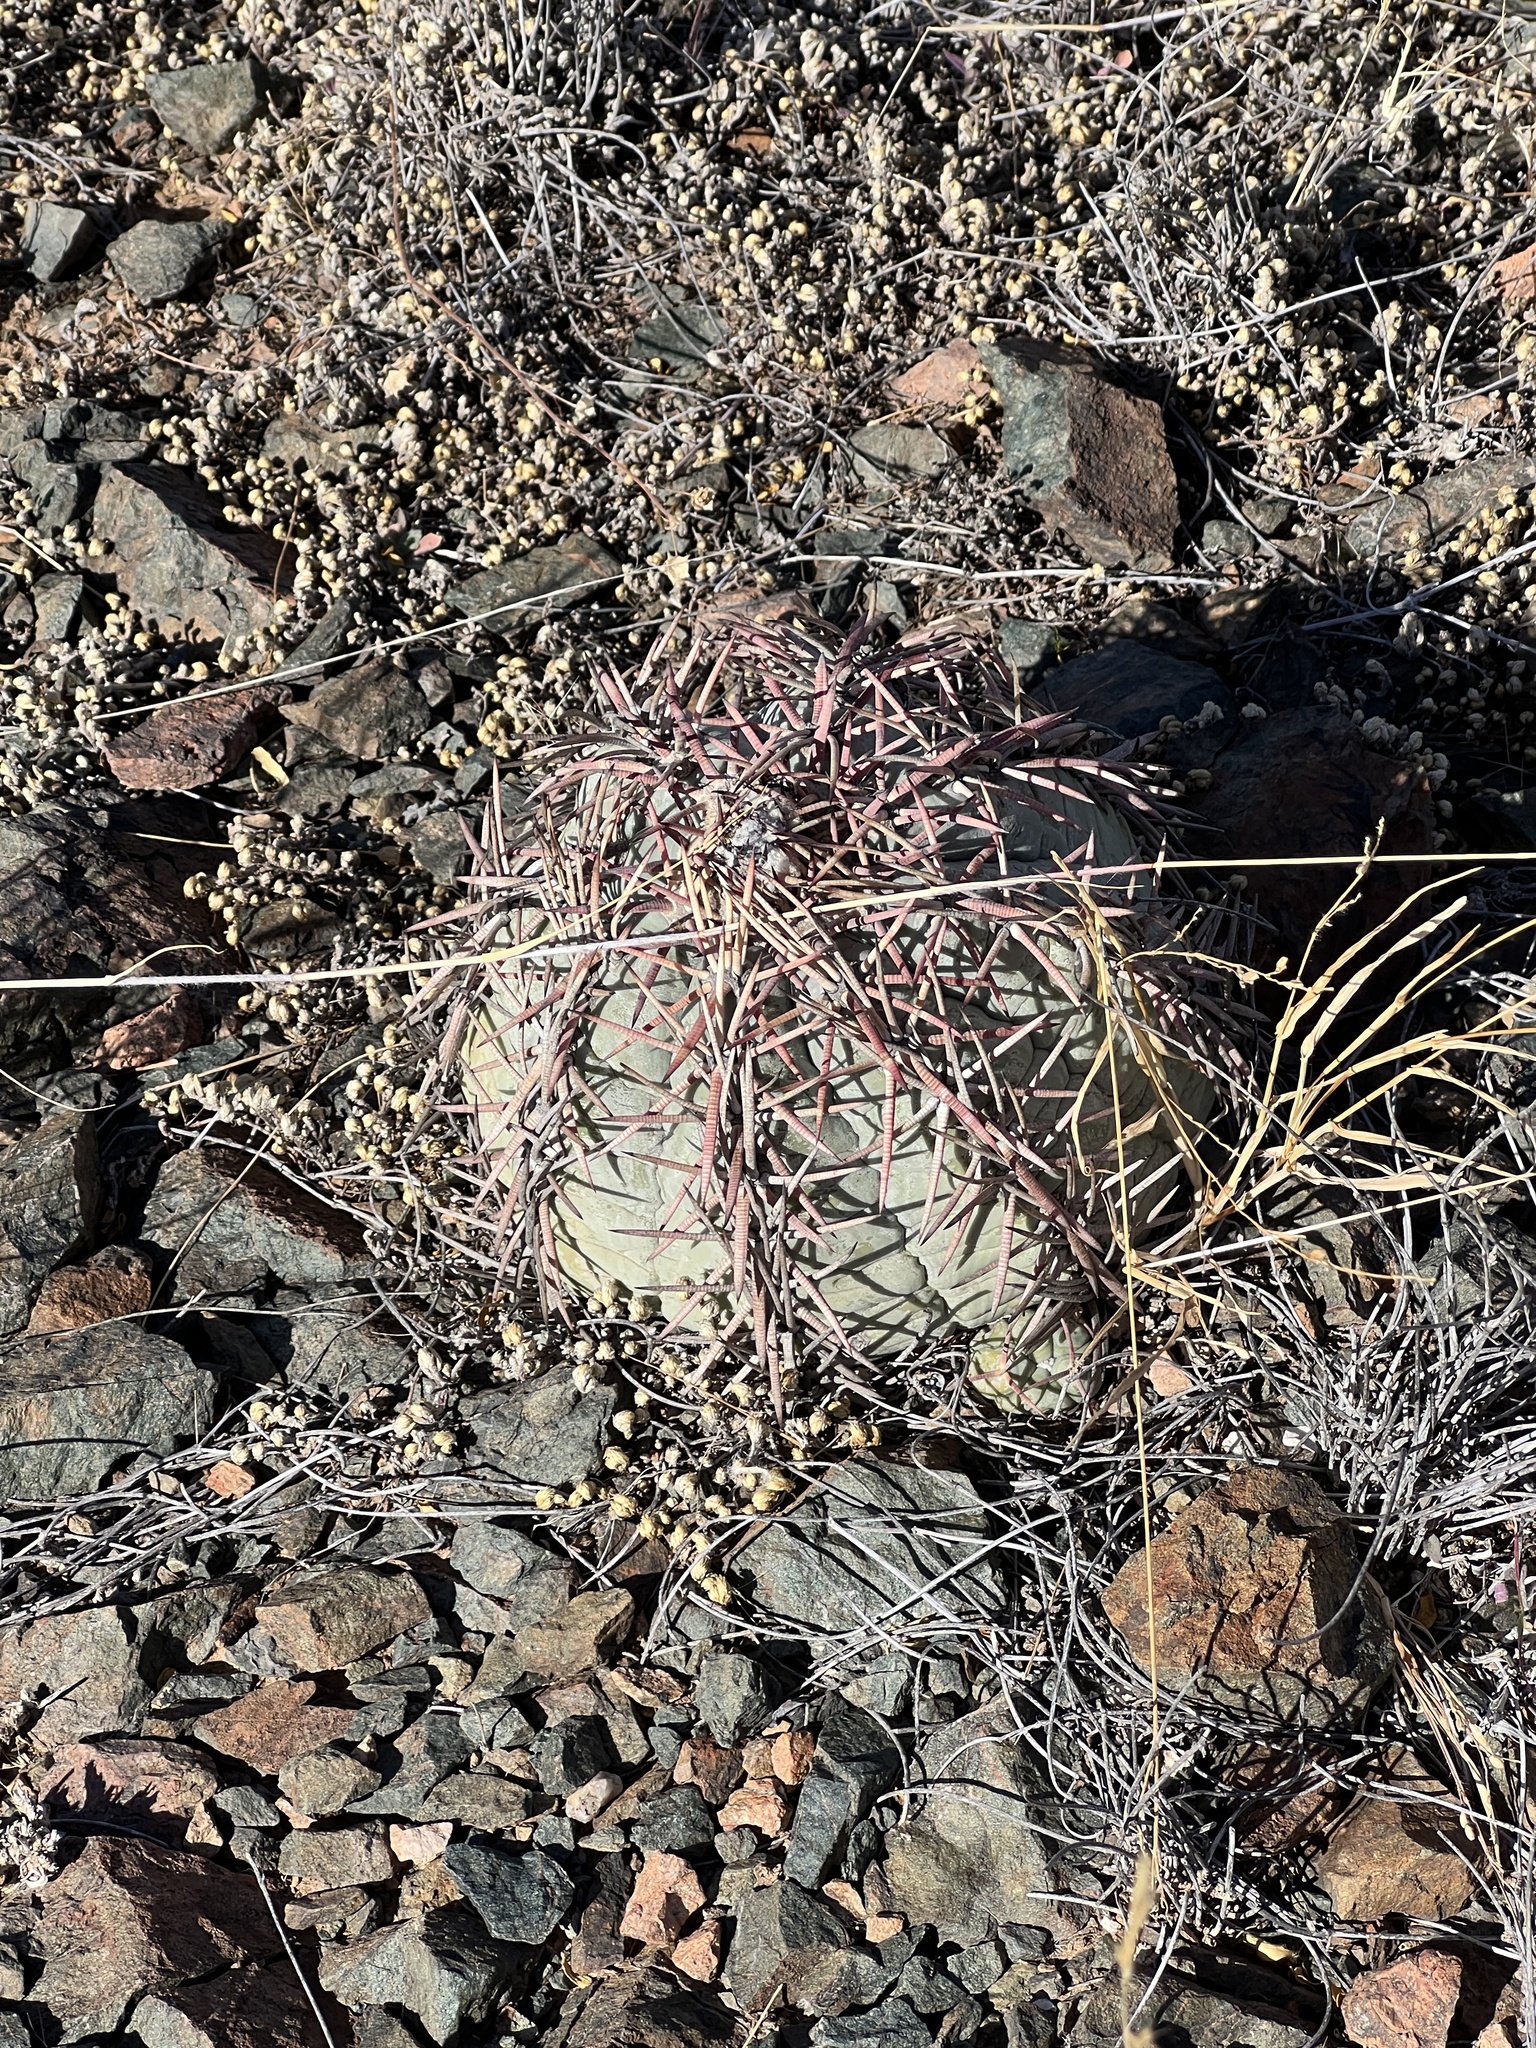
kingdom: Plantae
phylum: Tracheophyta
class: Magnoliopsida
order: Caryophyllales
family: Cactaceae
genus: Echinocactus
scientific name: Echinocactus horizonthalonius
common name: Devilshead
